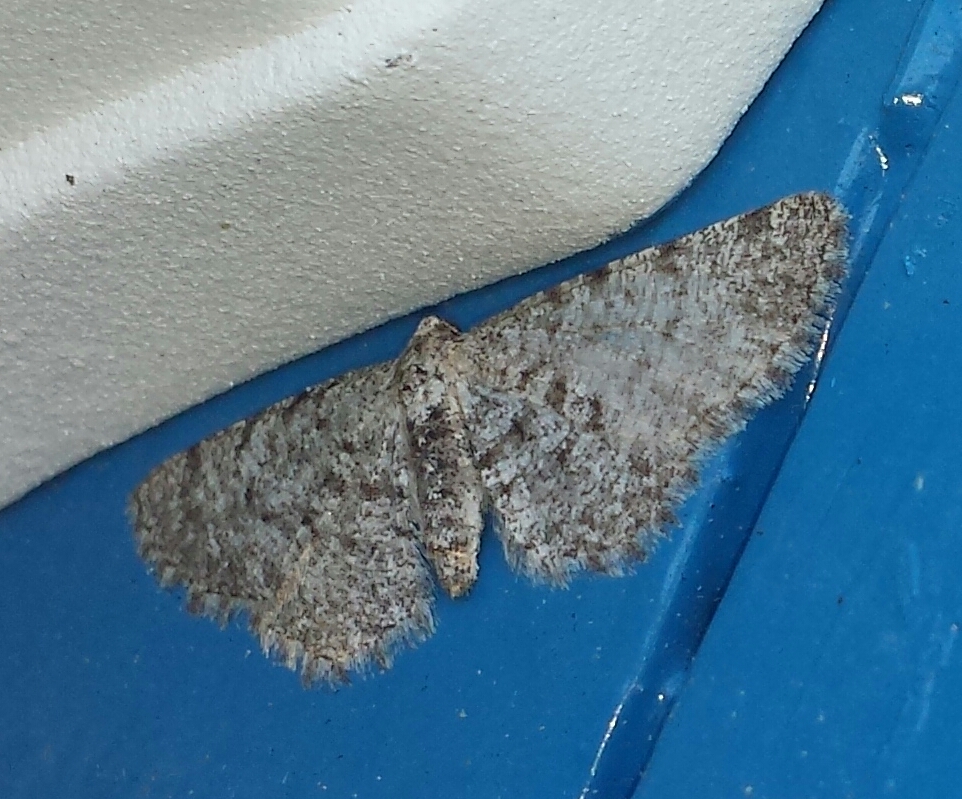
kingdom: Animalia
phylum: Arthropoda
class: Insecta
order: Lepidoptera
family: Geometridae
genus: Aethalura
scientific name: Aethalura intertexta
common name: Four-barred gray
